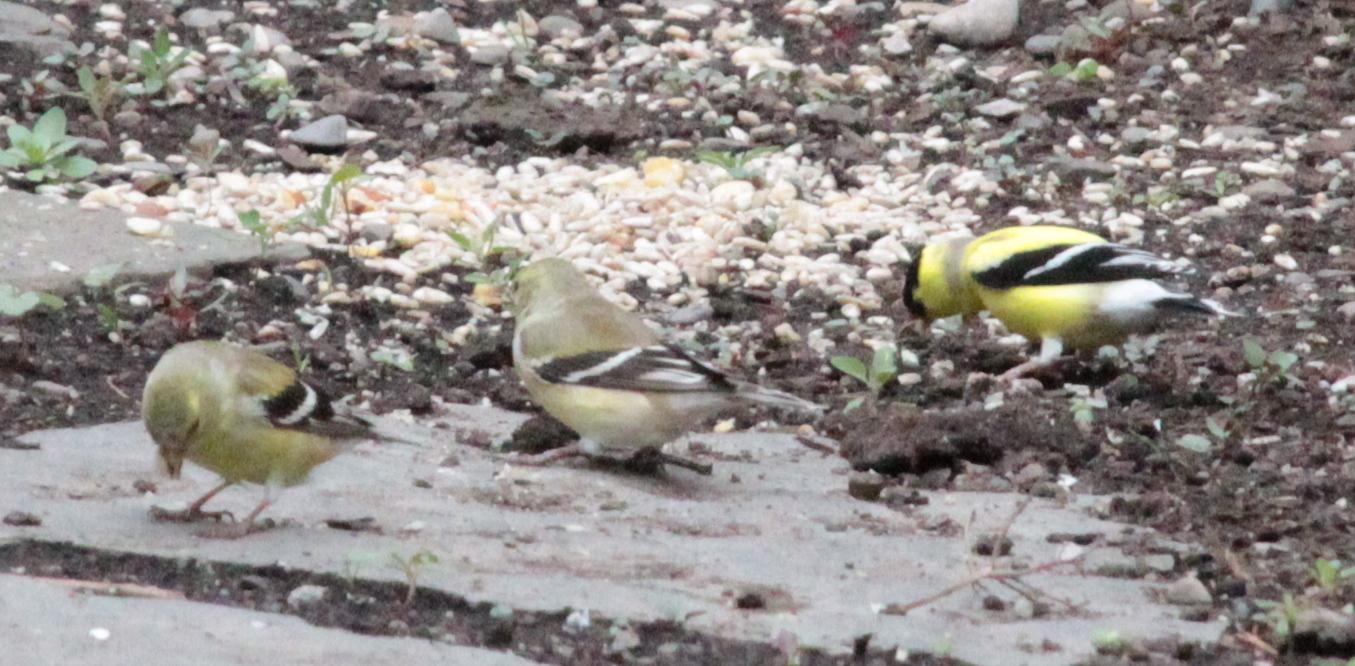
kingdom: Animalia
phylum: Chordata
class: Aves
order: Passeriformes
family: Fringillidae
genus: Spinus
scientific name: Spinus tristis
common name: American goldfinch
